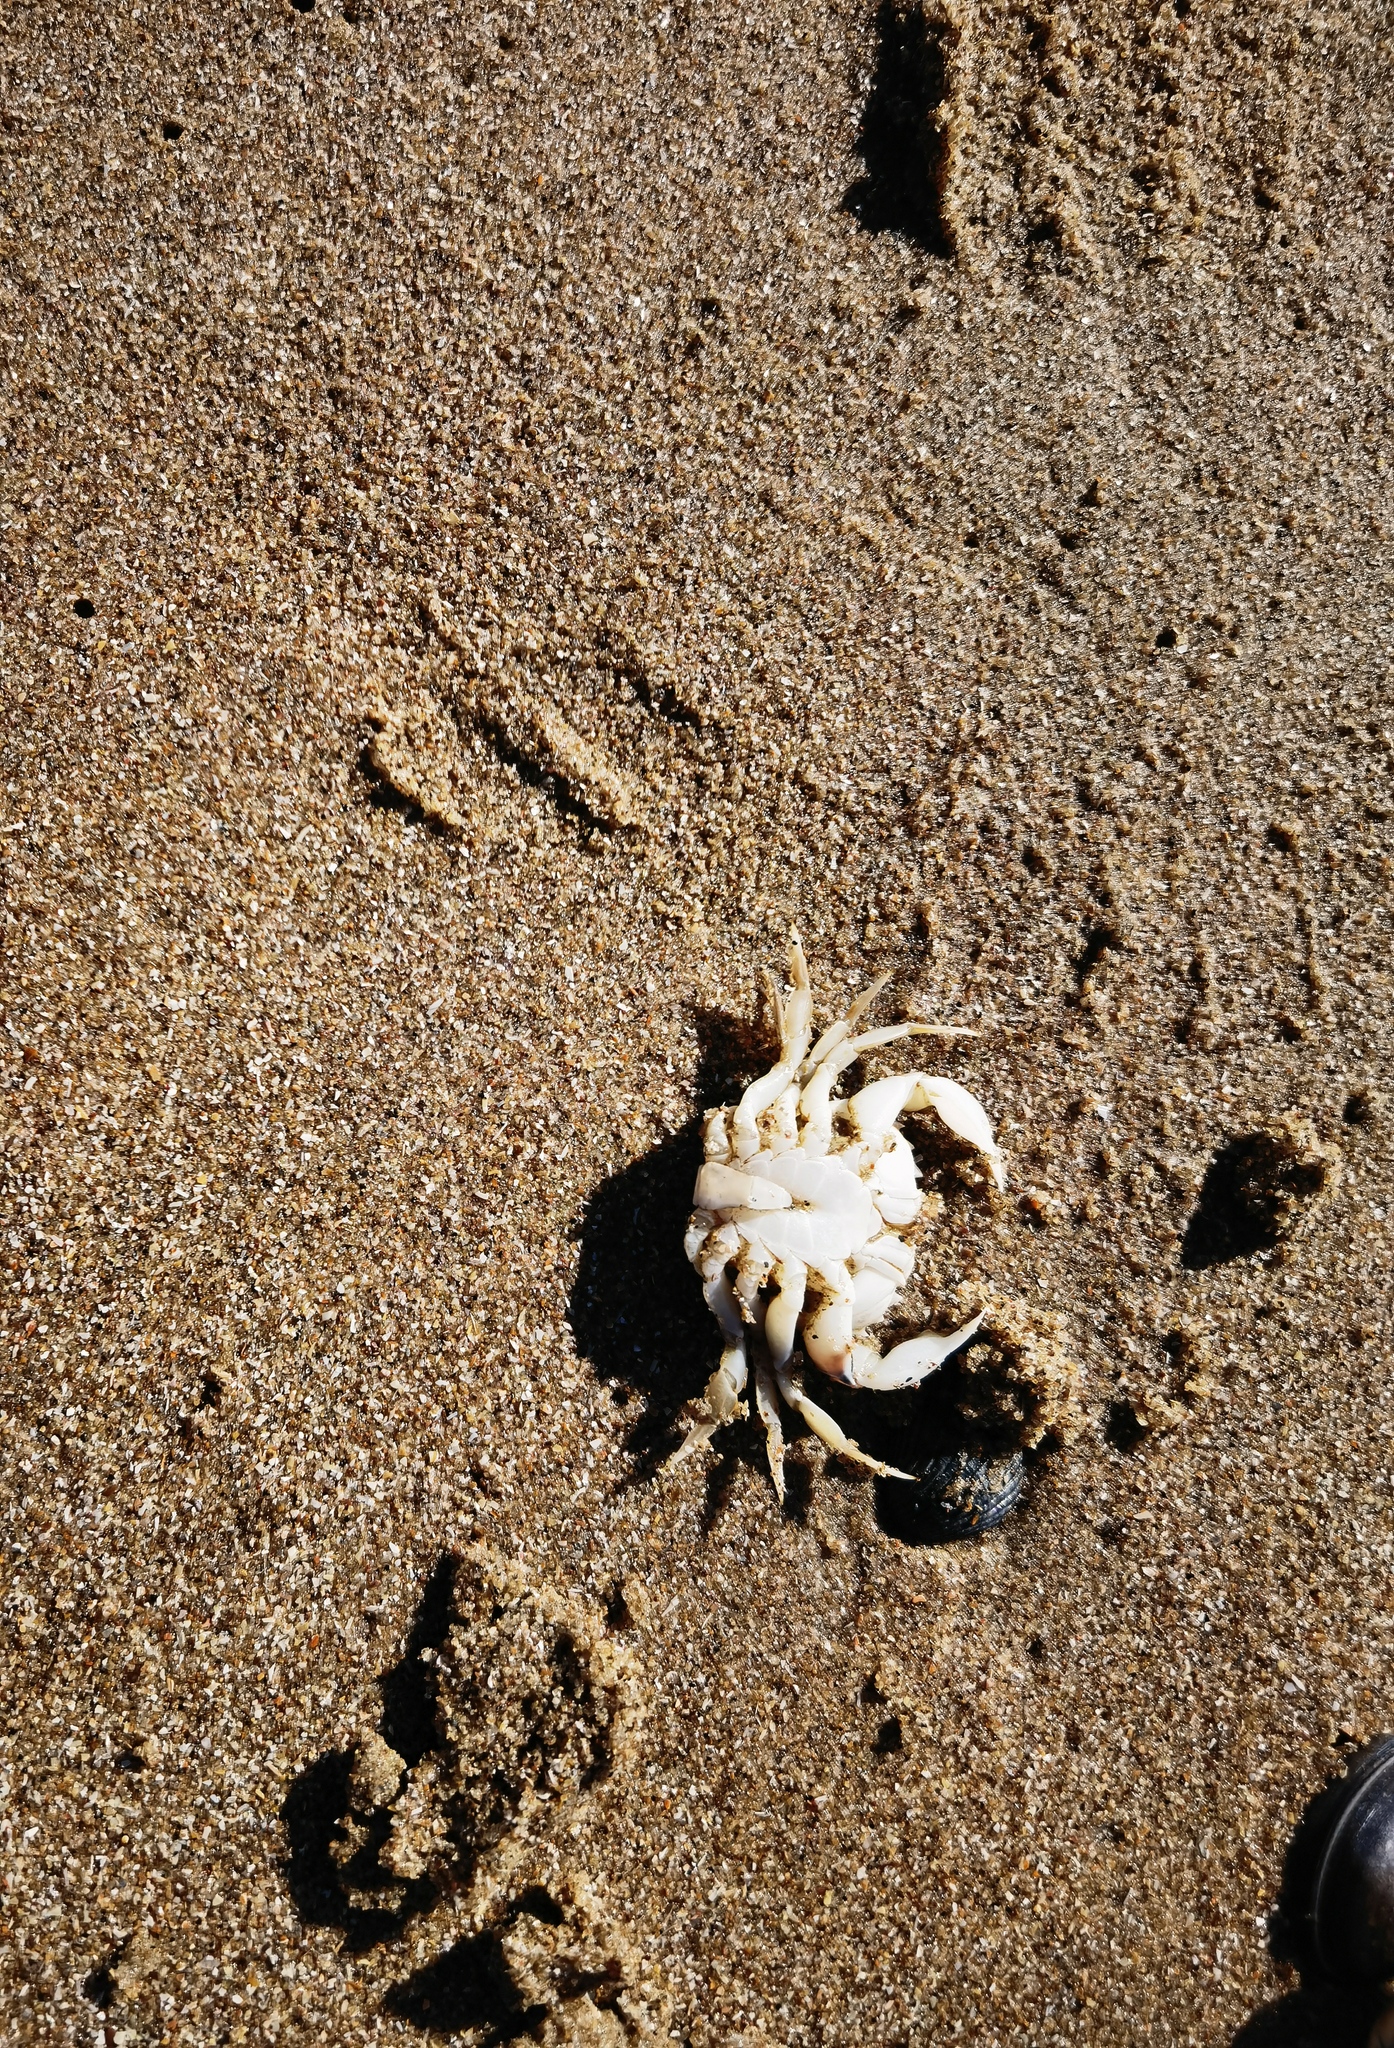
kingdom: Animalia
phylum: Arthropoda
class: Malacostraca
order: Decapoda
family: Carcinidae
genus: Portumnus
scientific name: Portumnus latipes
